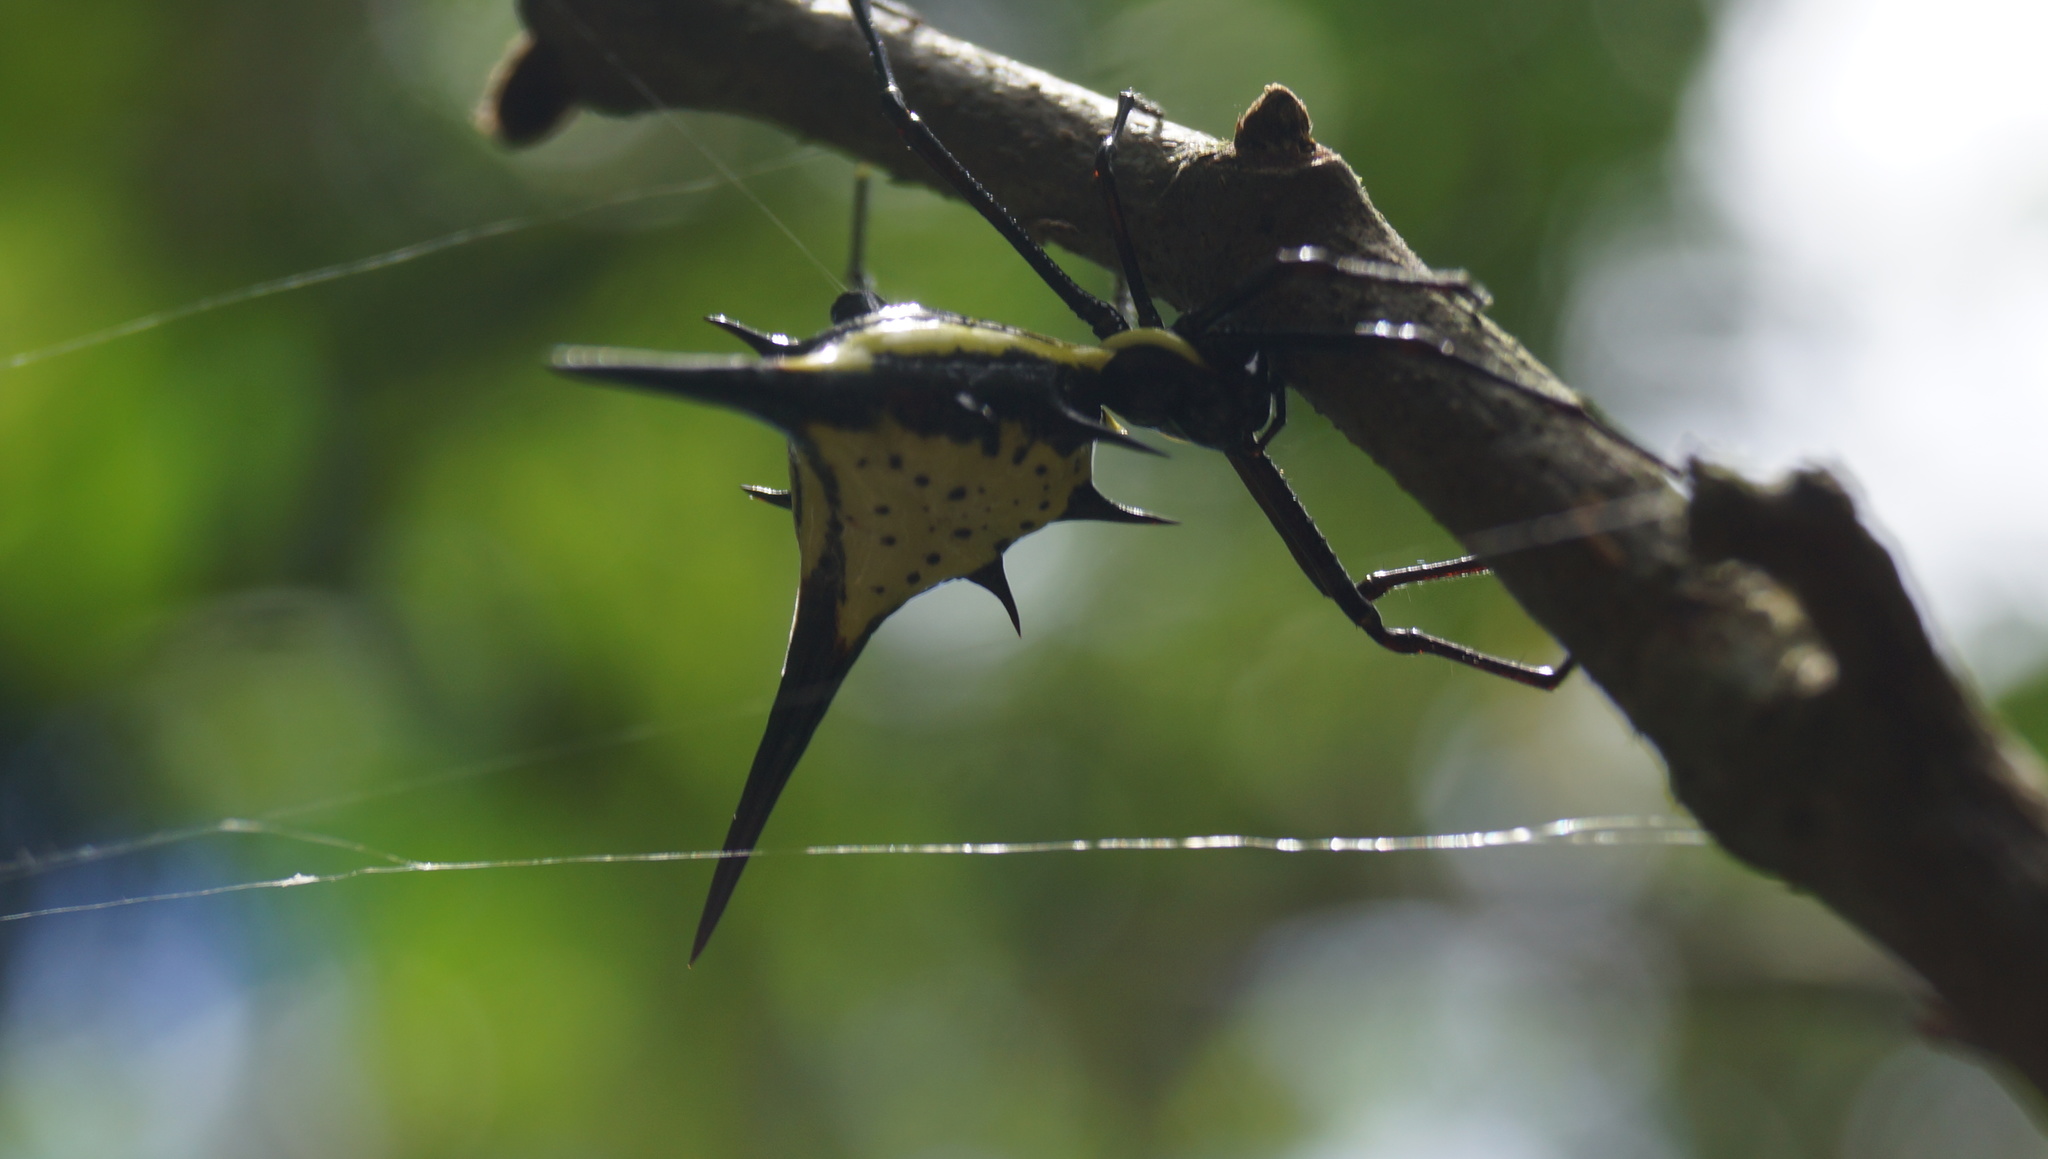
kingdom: Animalia
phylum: Arthropoda
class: Arachnida
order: Araneae
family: Araneidae
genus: Micrathena
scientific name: Micrathena schreibersi
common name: Orb weavers
